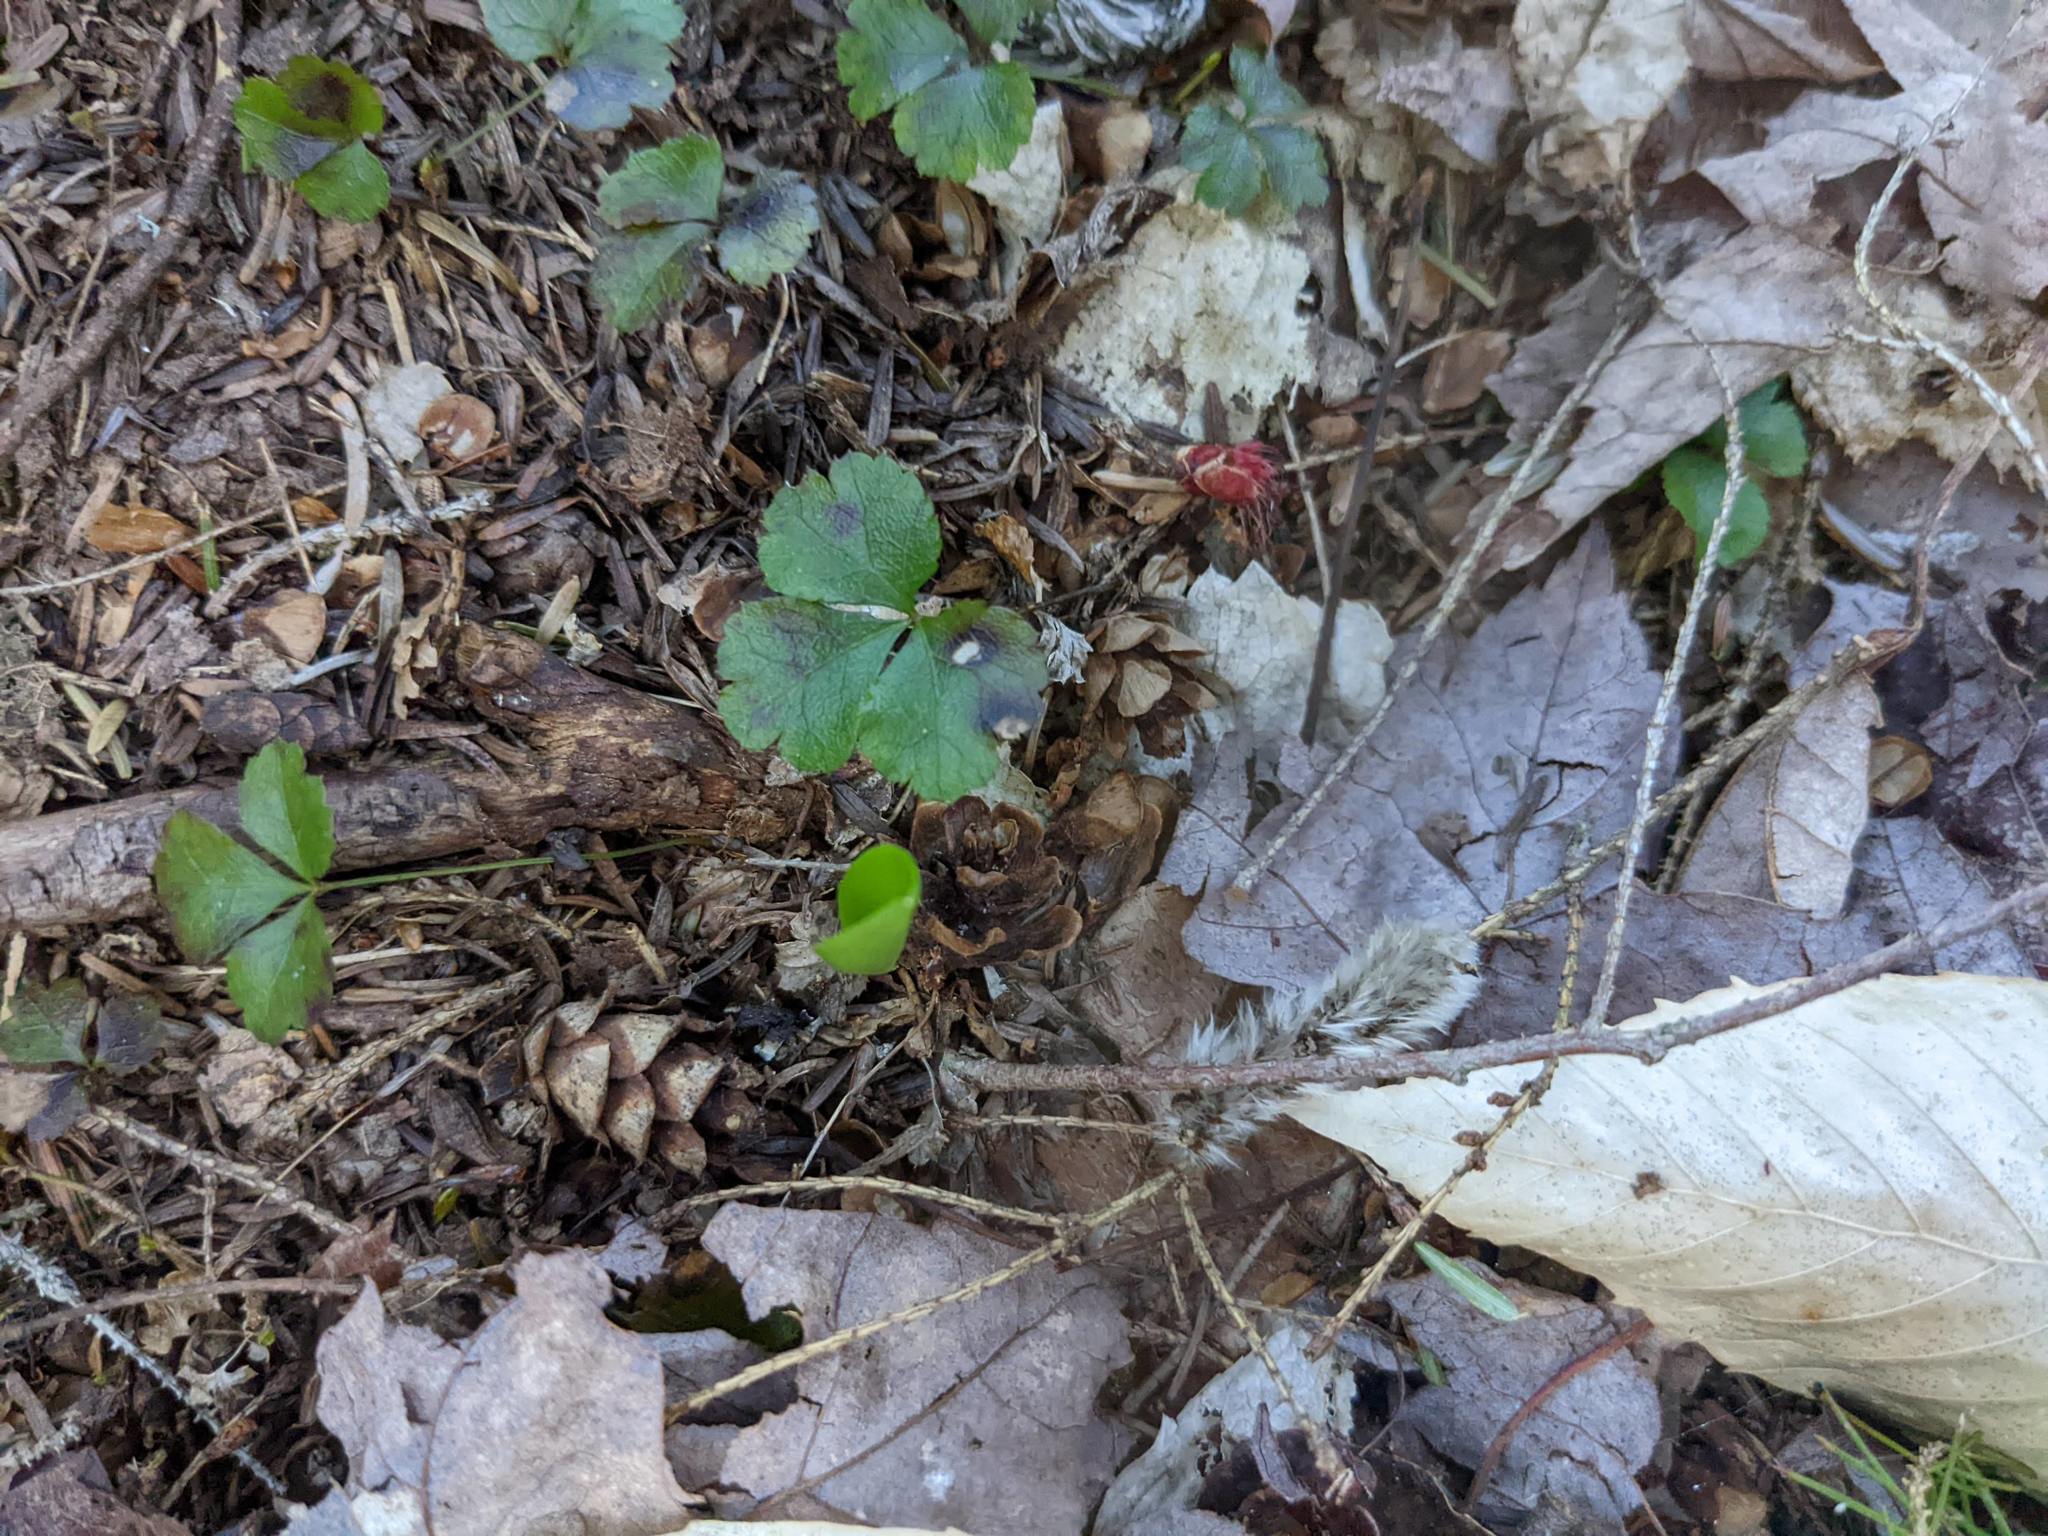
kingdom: Plantae
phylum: Tracheophyta
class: Magnoliopsida
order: Ranunculales
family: Ranunculaceae
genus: Coptis
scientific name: Coptis trifolia
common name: Canker-root
